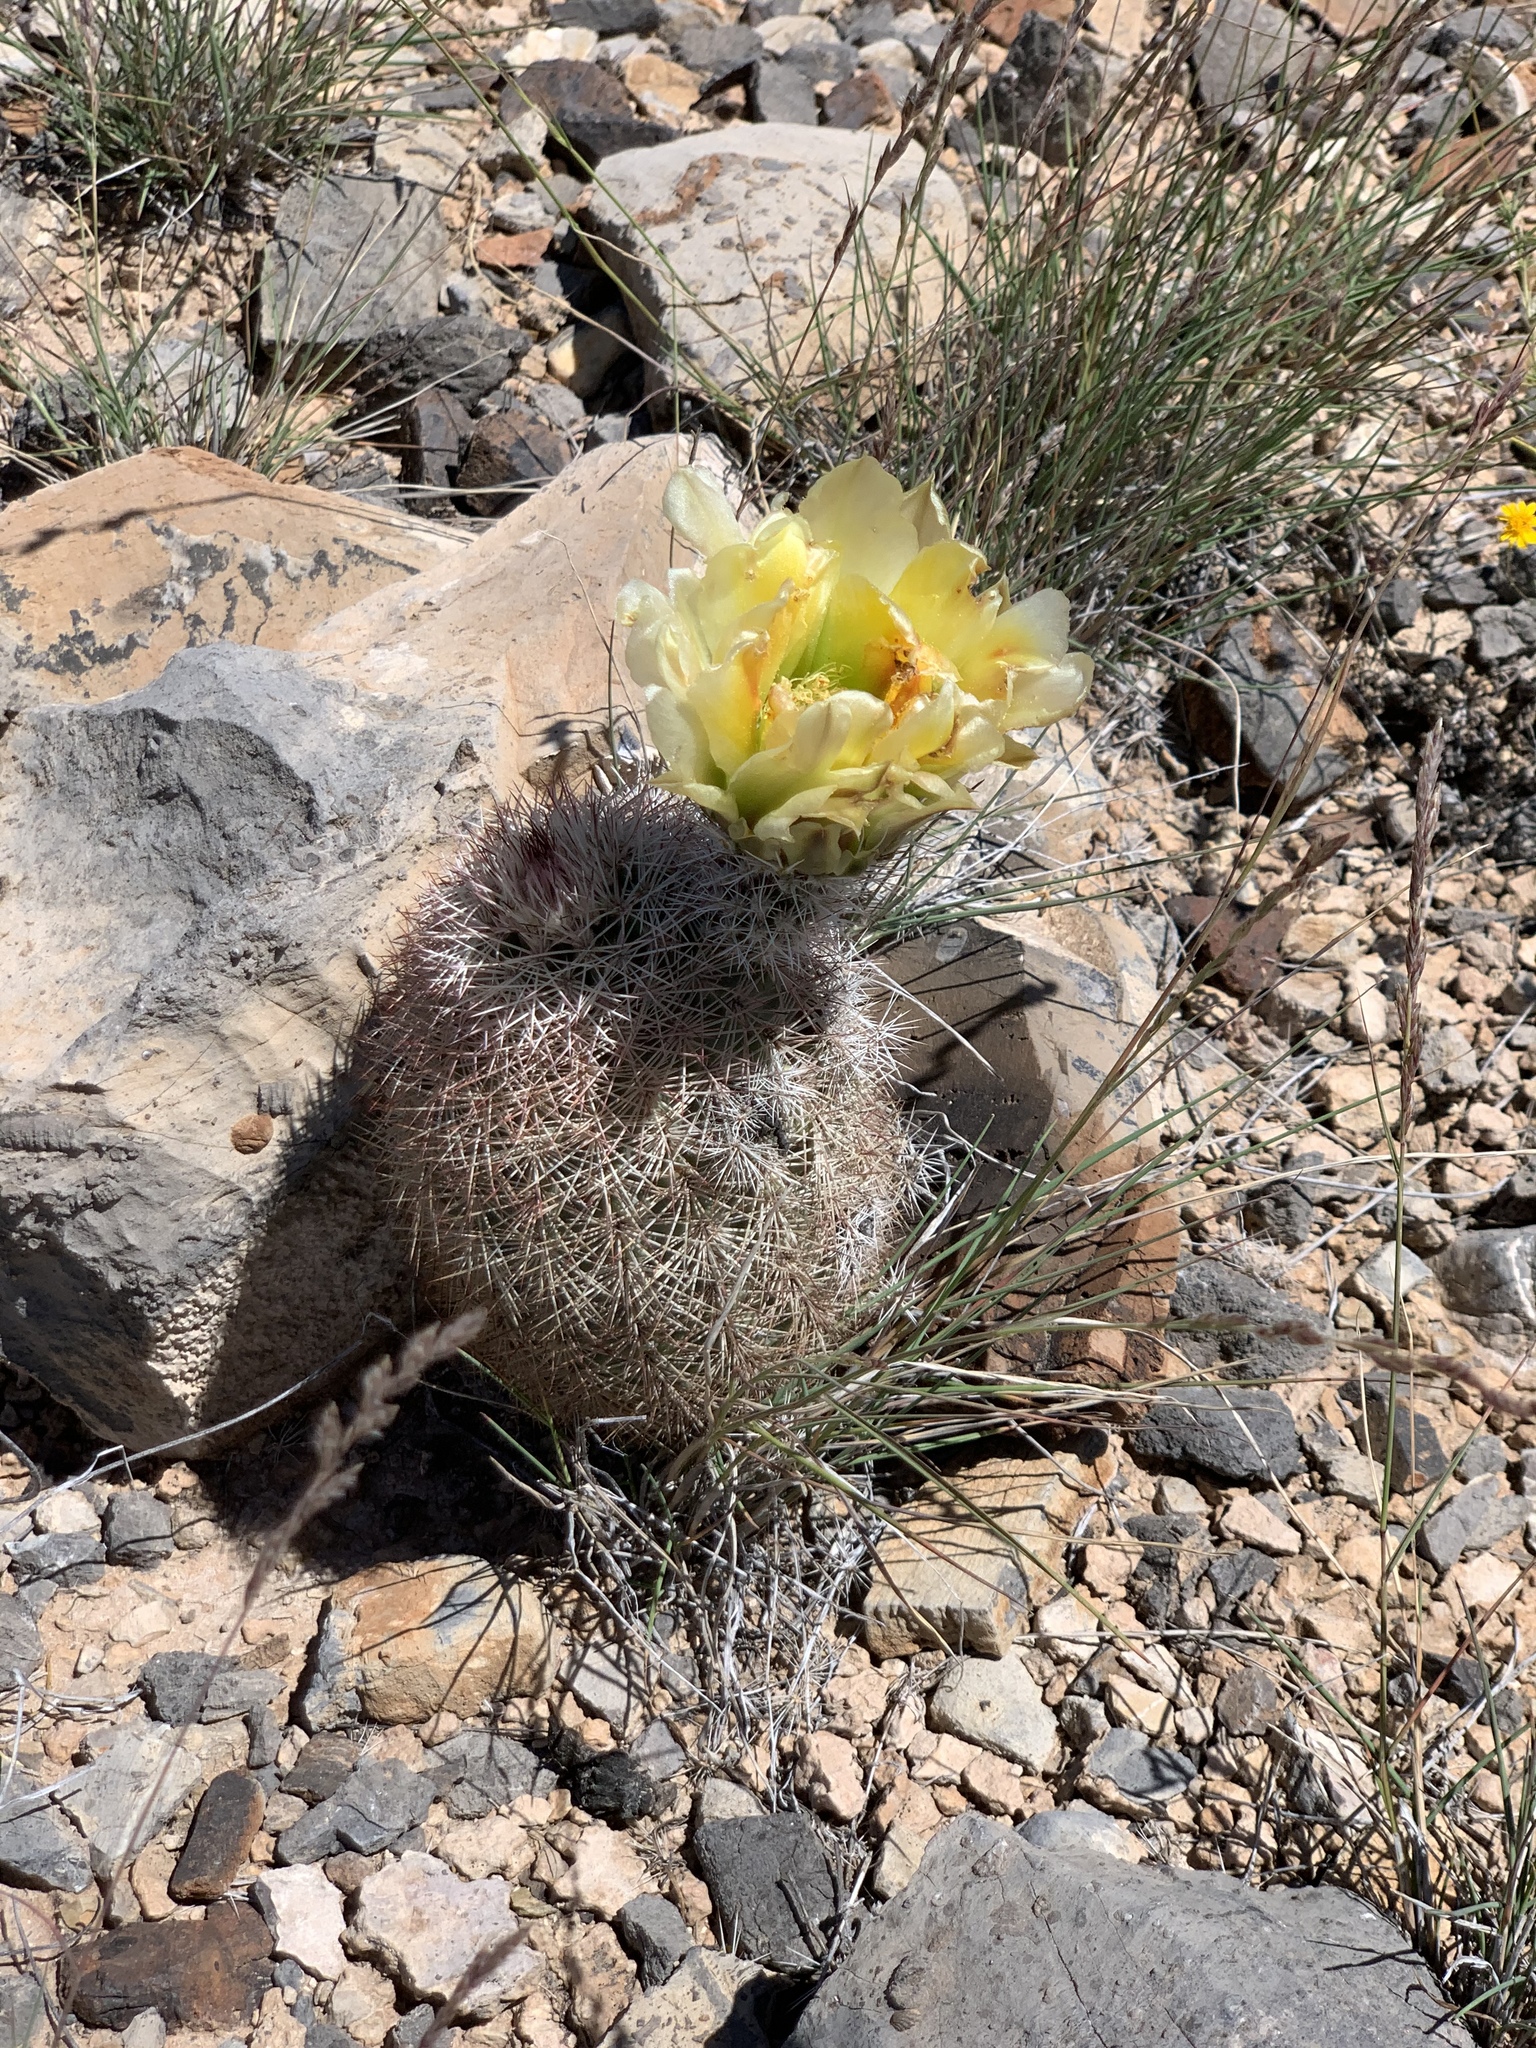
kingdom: Plantae
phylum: Tracheophyta
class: Magnoliopsida
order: Caryophyllales
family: Cactaceae
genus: Echinocereus
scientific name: Echinocereus dasyacanthus
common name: Spiny hedgehog cactus
